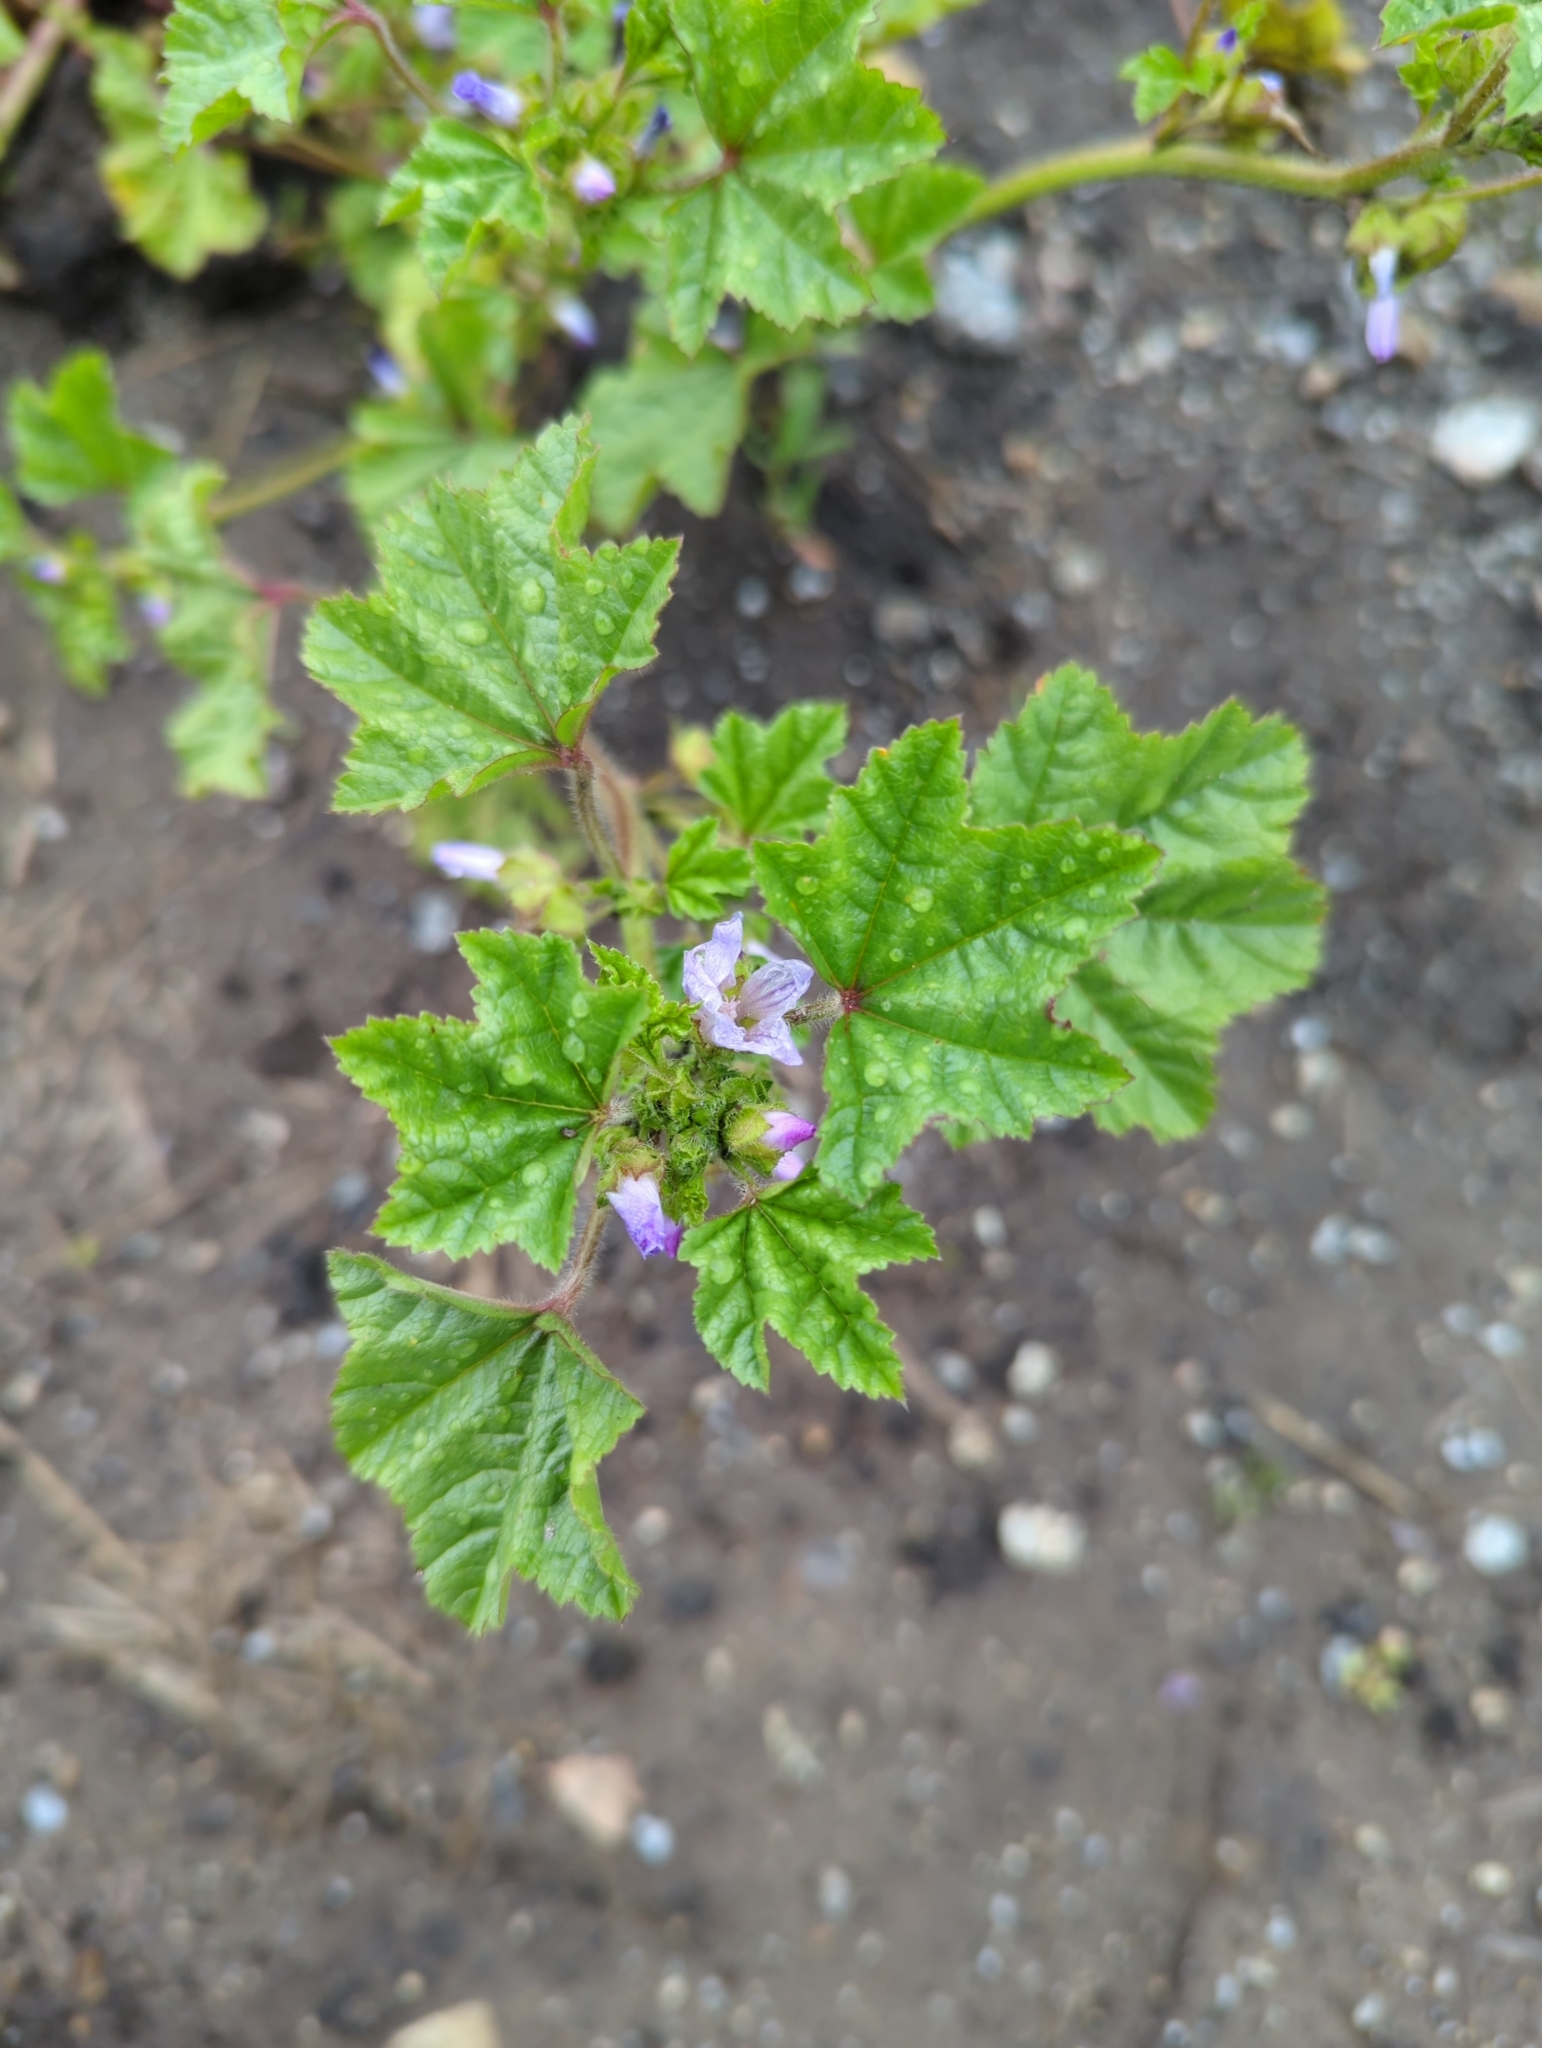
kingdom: Plantae
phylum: Tracheophyta
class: Magnoliopsida
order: Malvales
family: Malvaceae
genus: Malva
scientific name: Malva nicaeensis
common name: French mallow
